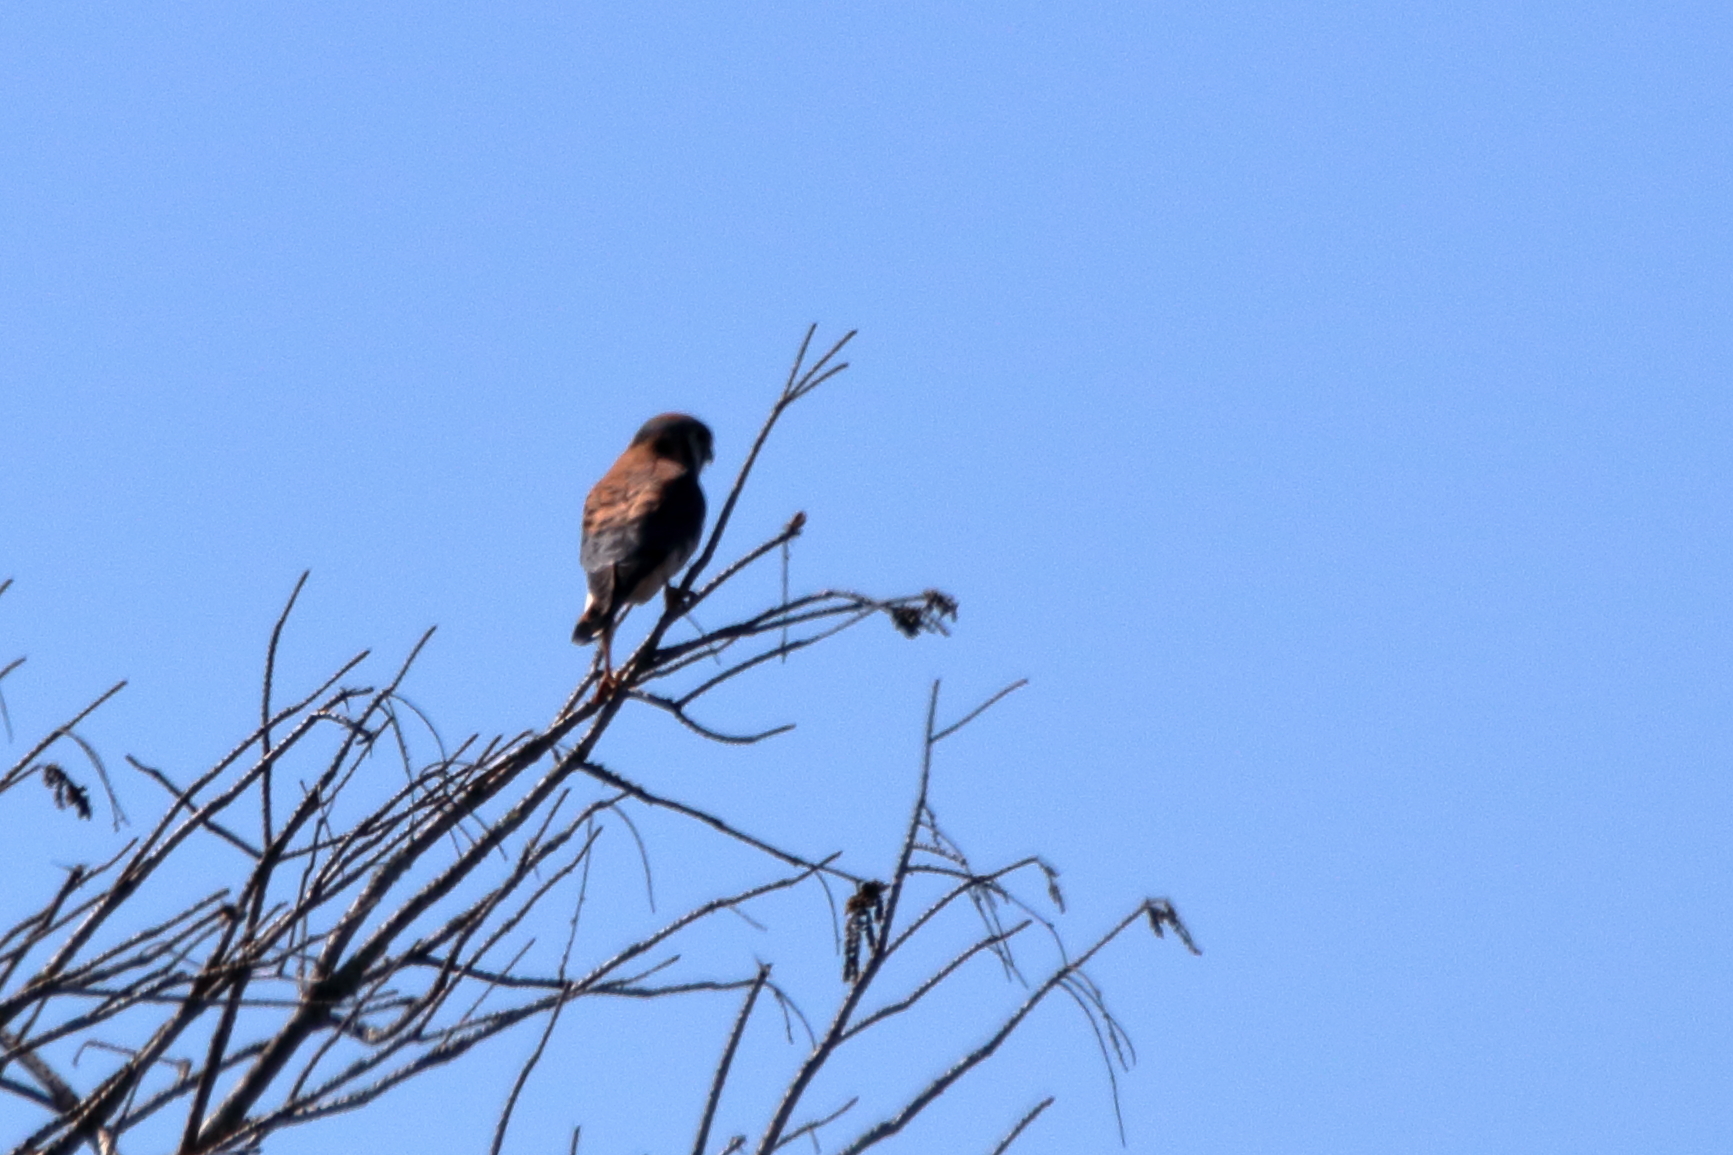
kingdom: Animalia
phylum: Chordata
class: Aves
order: Falconiformes
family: Falconidae
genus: Falco
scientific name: Falco sparverius
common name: American kestrel
